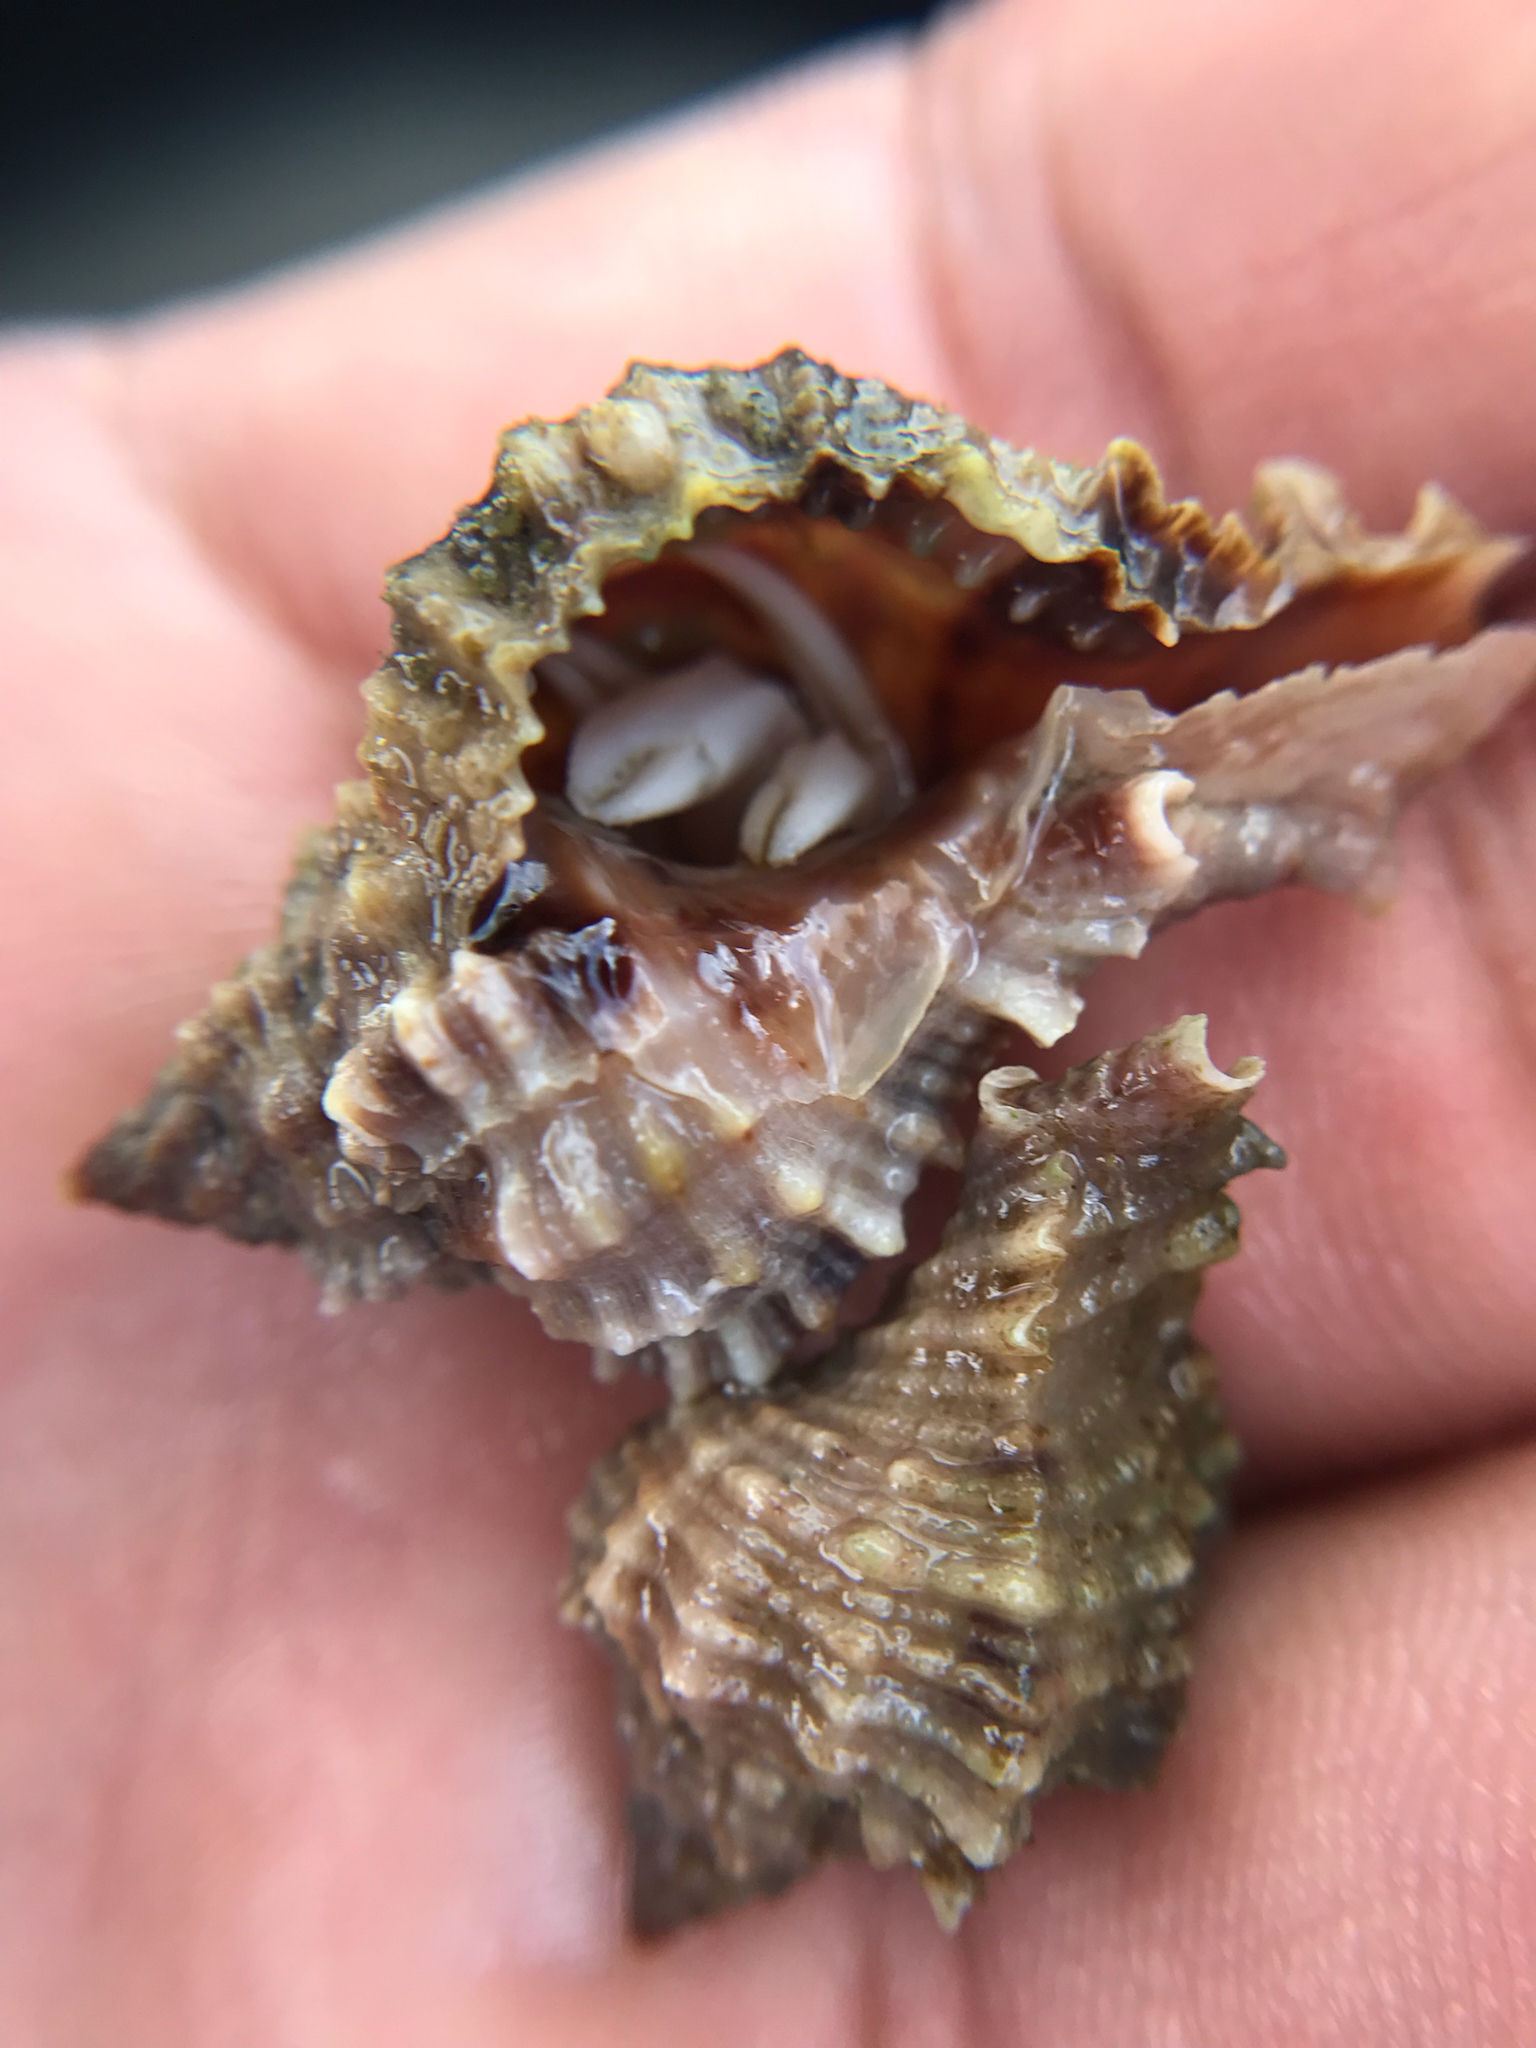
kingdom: Animalia
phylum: Mollusca
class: Gastropoda
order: Neogastropoda
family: Muricidae
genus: Phyllonotus
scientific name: Phyllonotus pomum
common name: Apple murex
